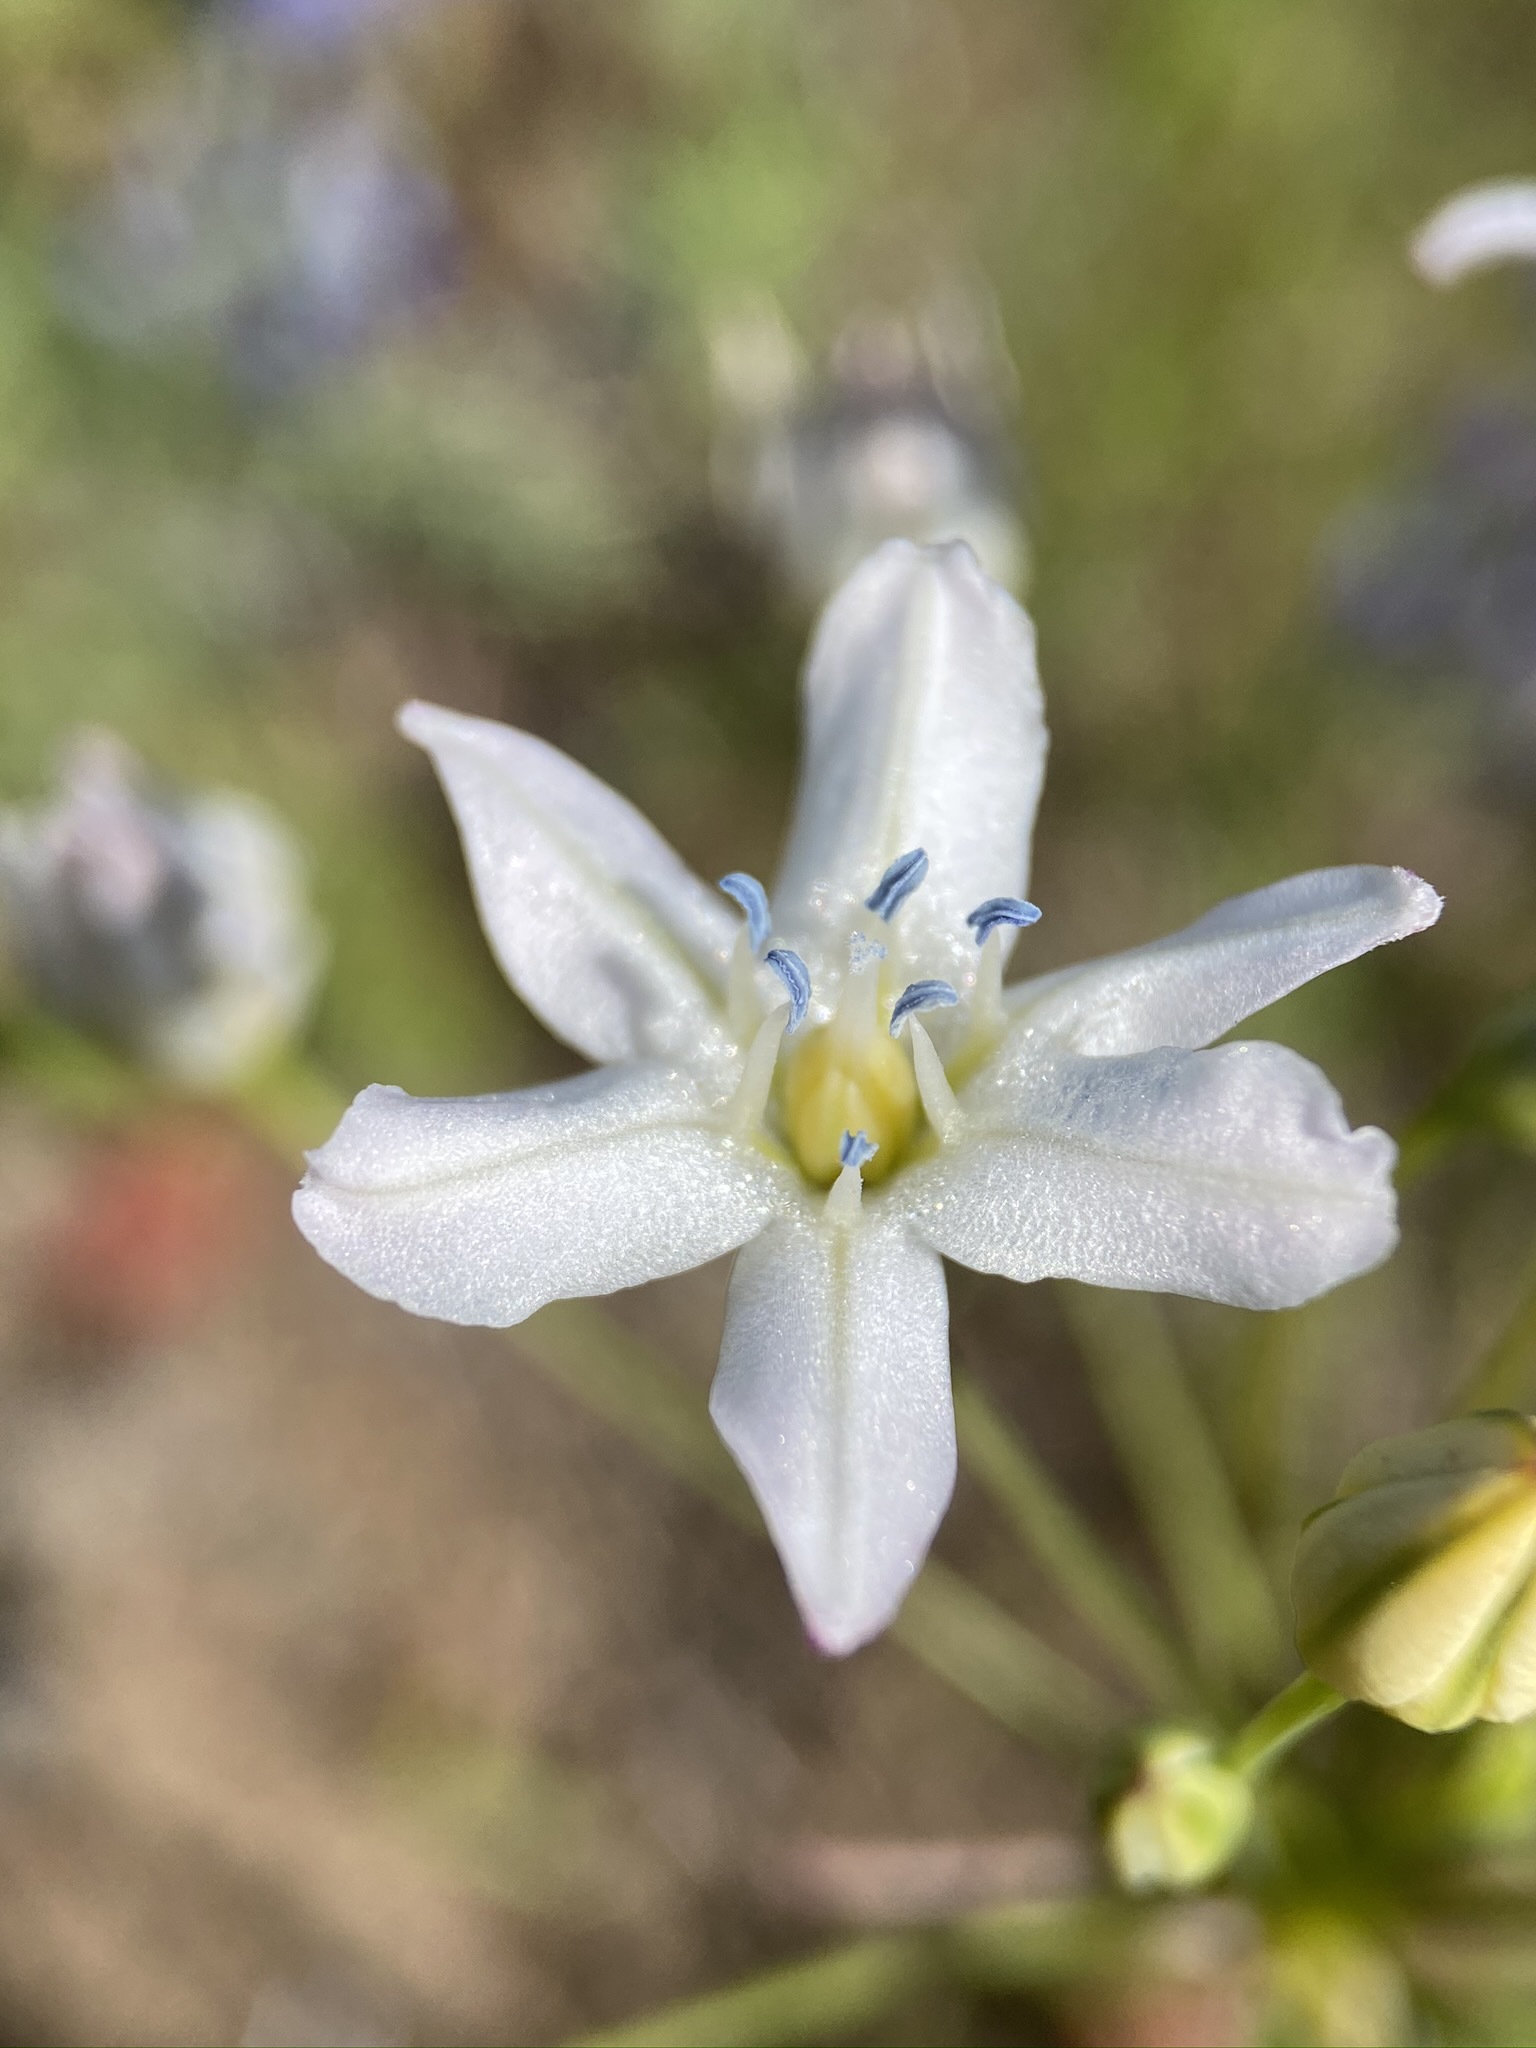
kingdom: Plantae
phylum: Tracheophyta
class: Liliopsida
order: Asparagales
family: Asparagaceae
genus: Triteleia
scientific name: Triteleia lilacina
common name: Lilac-flower wild hyacinth
